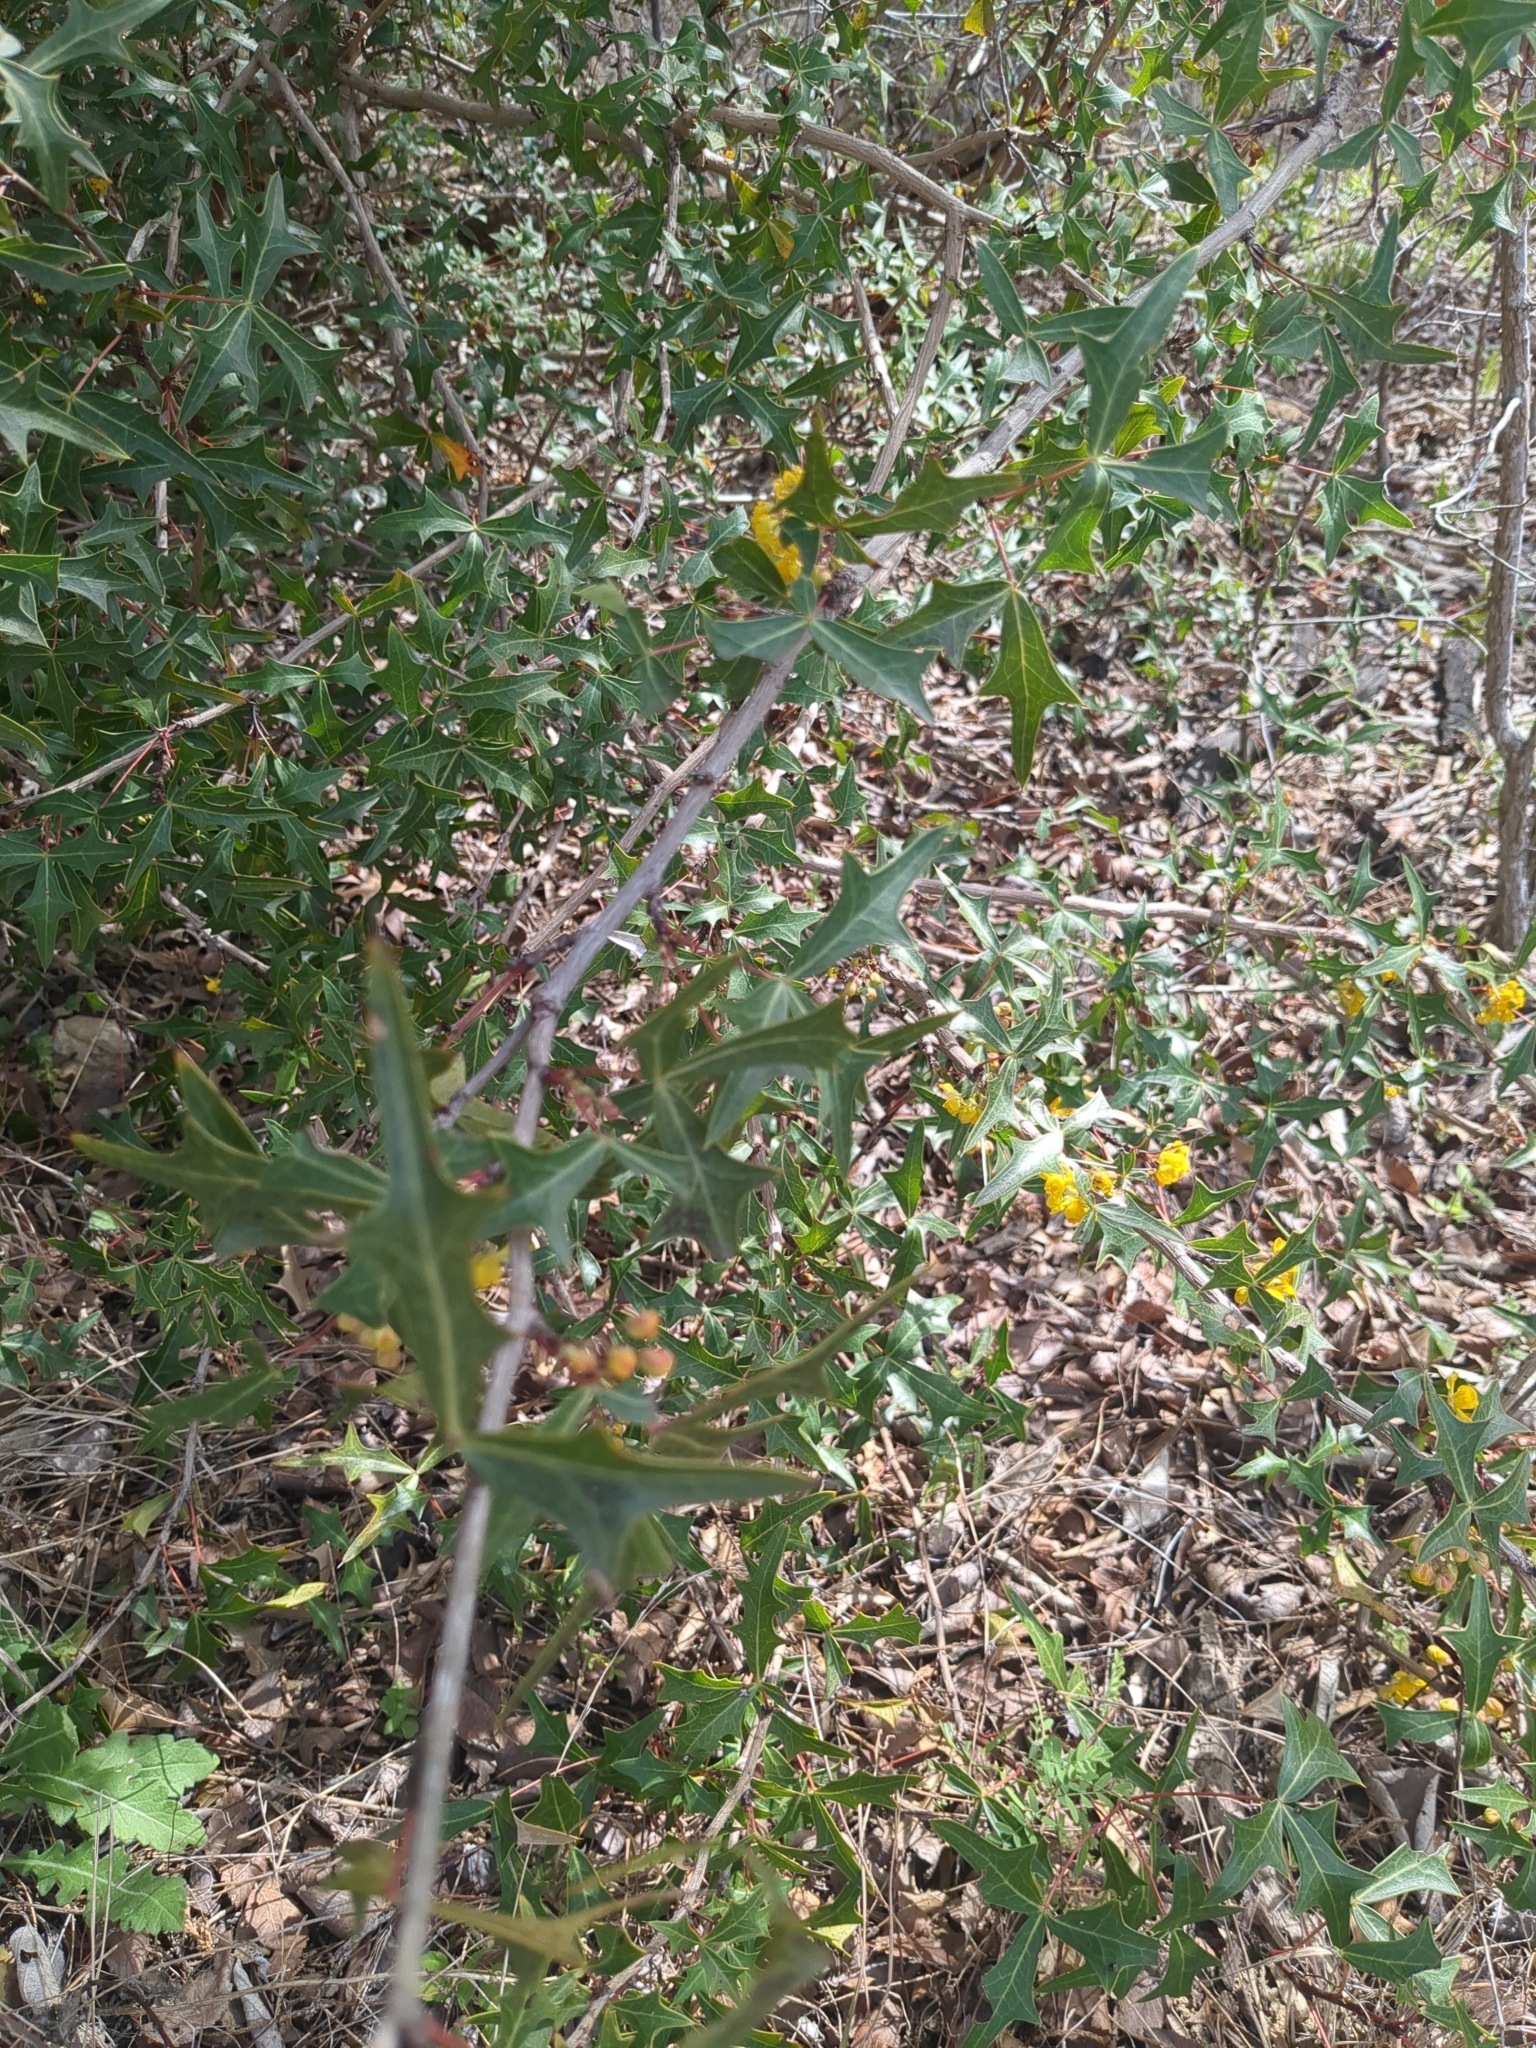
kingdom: Plantae
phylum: Tracheophyta
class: Magnoliopsida
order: Ranunculales
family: Berberidaceae
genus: Alloberberis
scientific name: Alloberberis trifoliolata
